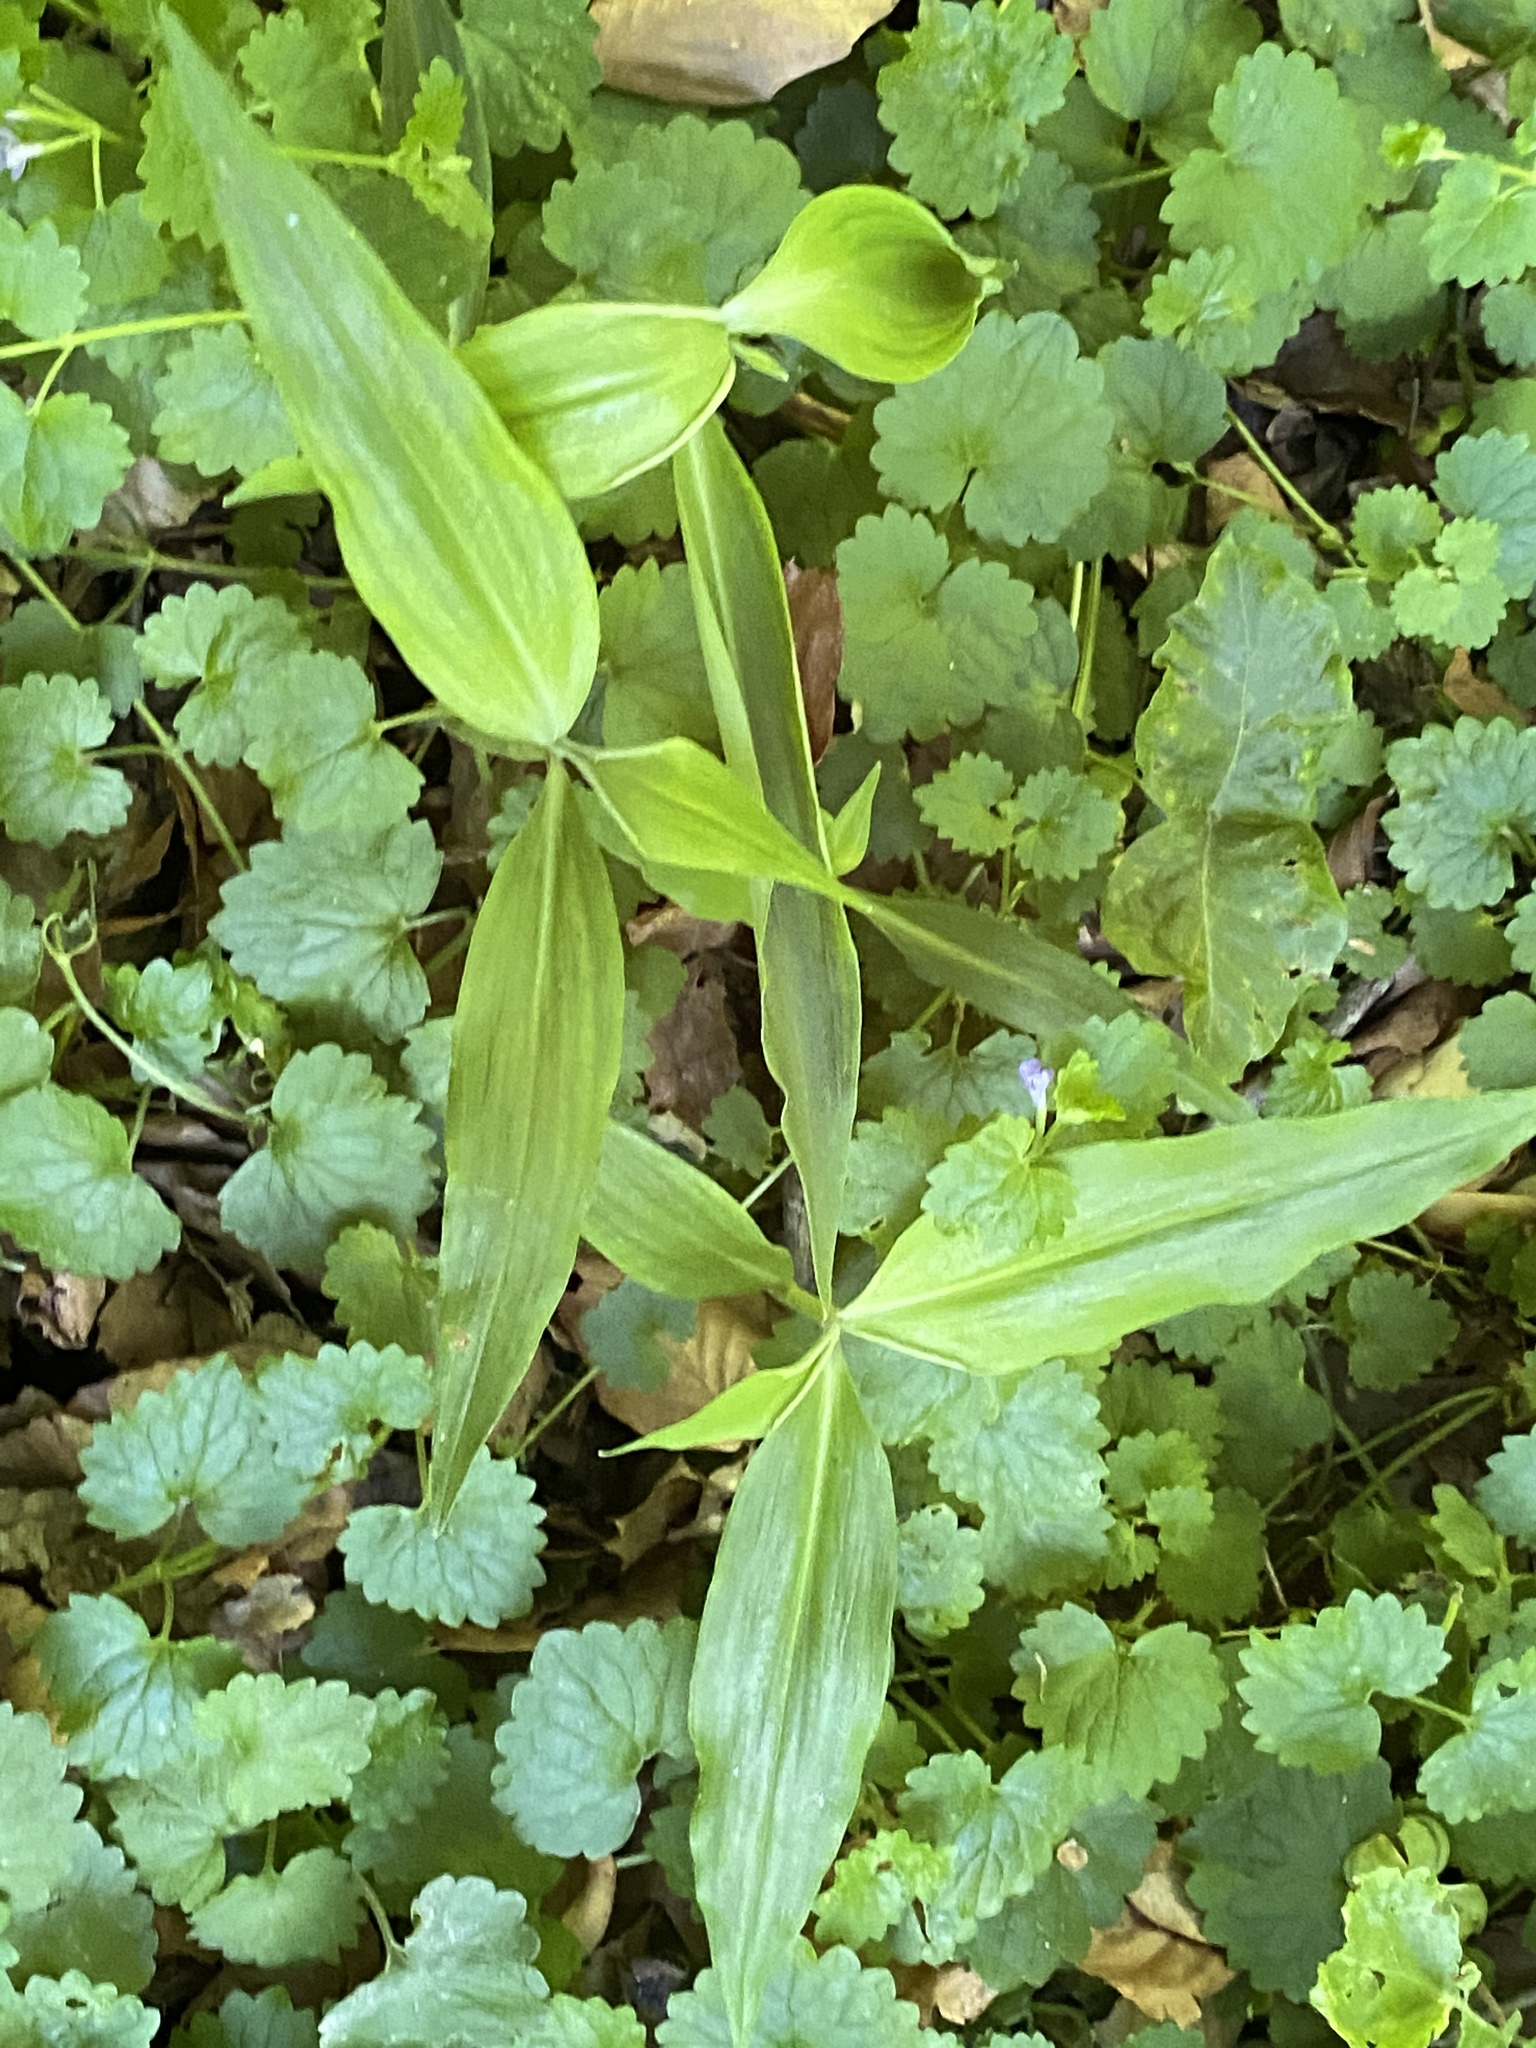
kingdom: Plantae
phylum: Tracheophyta
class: Liliopsida
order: Commelinales
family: Commelinaceae
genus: Commelina
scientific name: Commelina communis
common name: Asiatic dayflower
